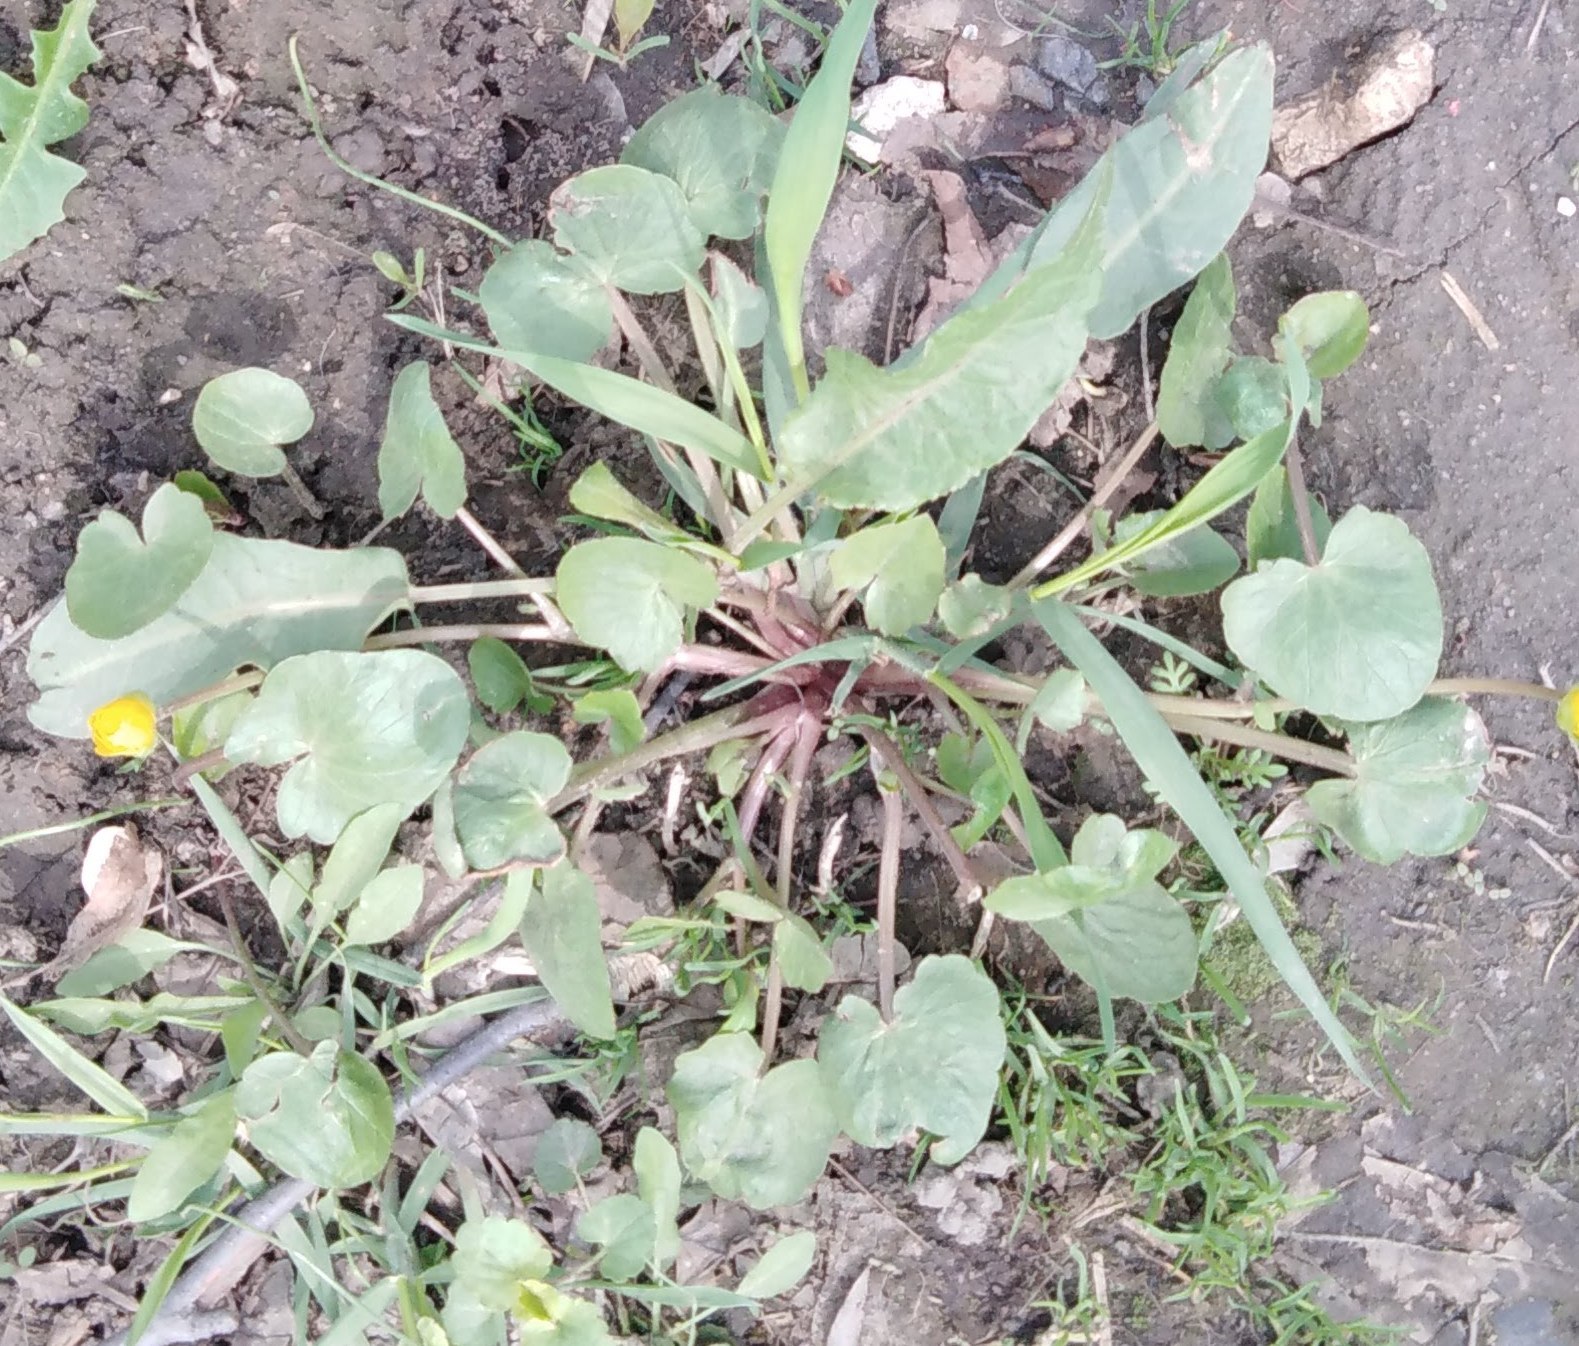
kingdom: Plantae
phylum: Tracheophyta
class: Magnoliopsida
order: Ranunculales
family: Ranunculaceae
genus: Ficaria
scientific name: Ficaria verna
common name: Lesser celandine
